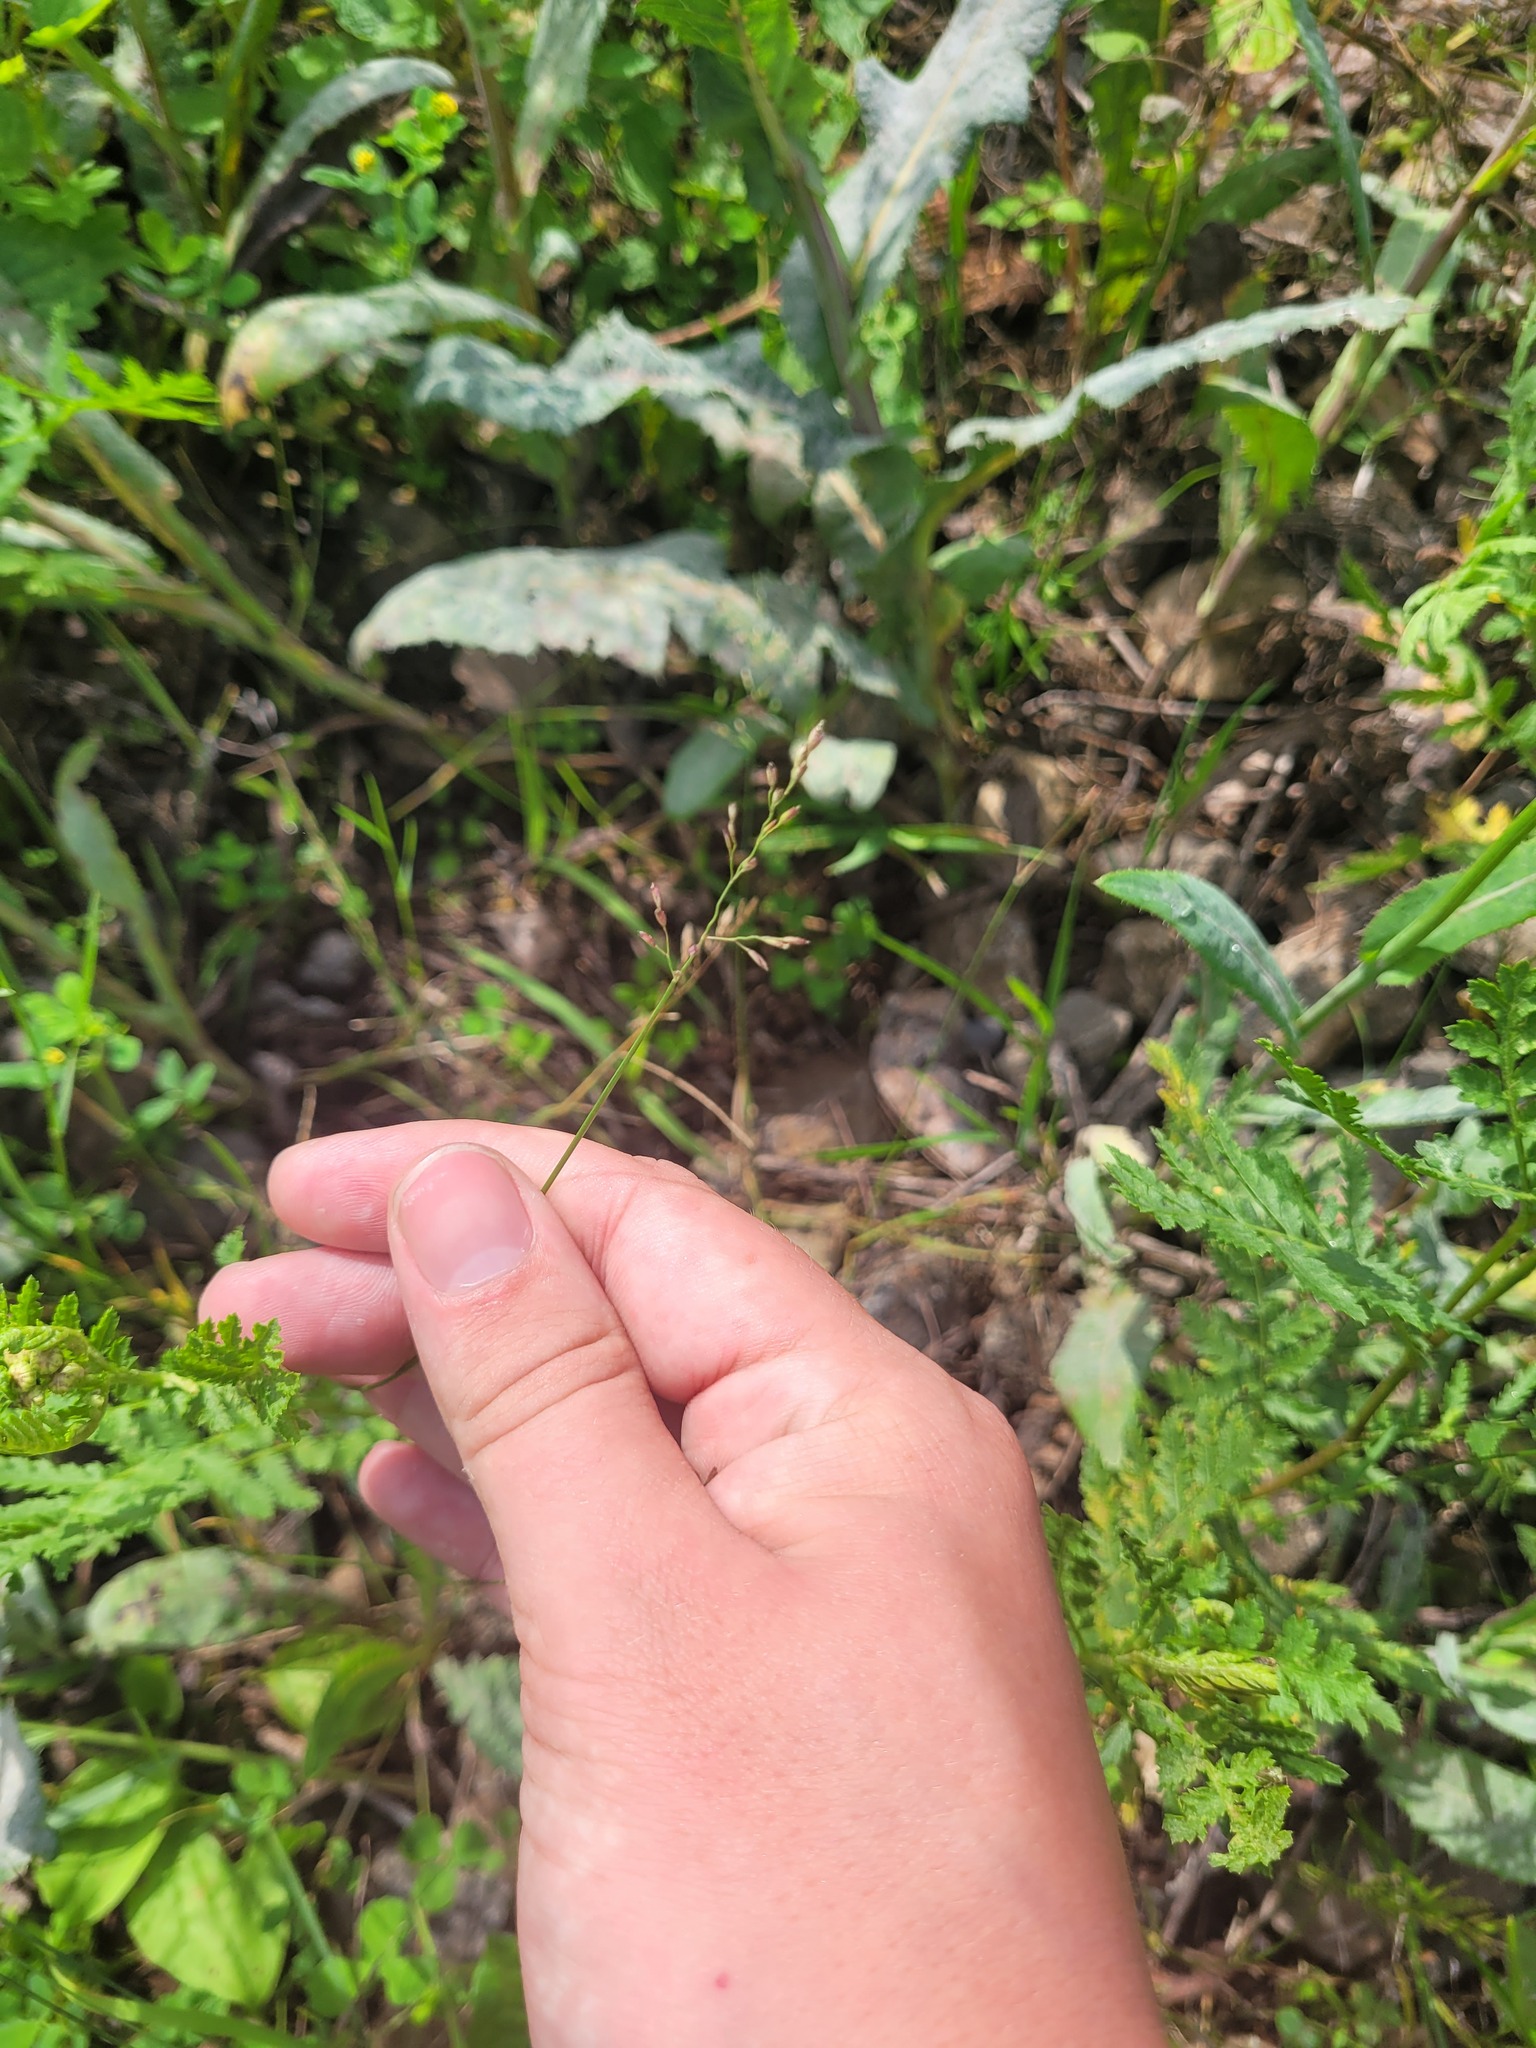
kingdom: Plantae
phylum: Tracheophyta
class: Liliopsida
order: Poales
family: Poaceae
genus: Poa
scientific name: Poa compressa
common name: Canada bluegrass
